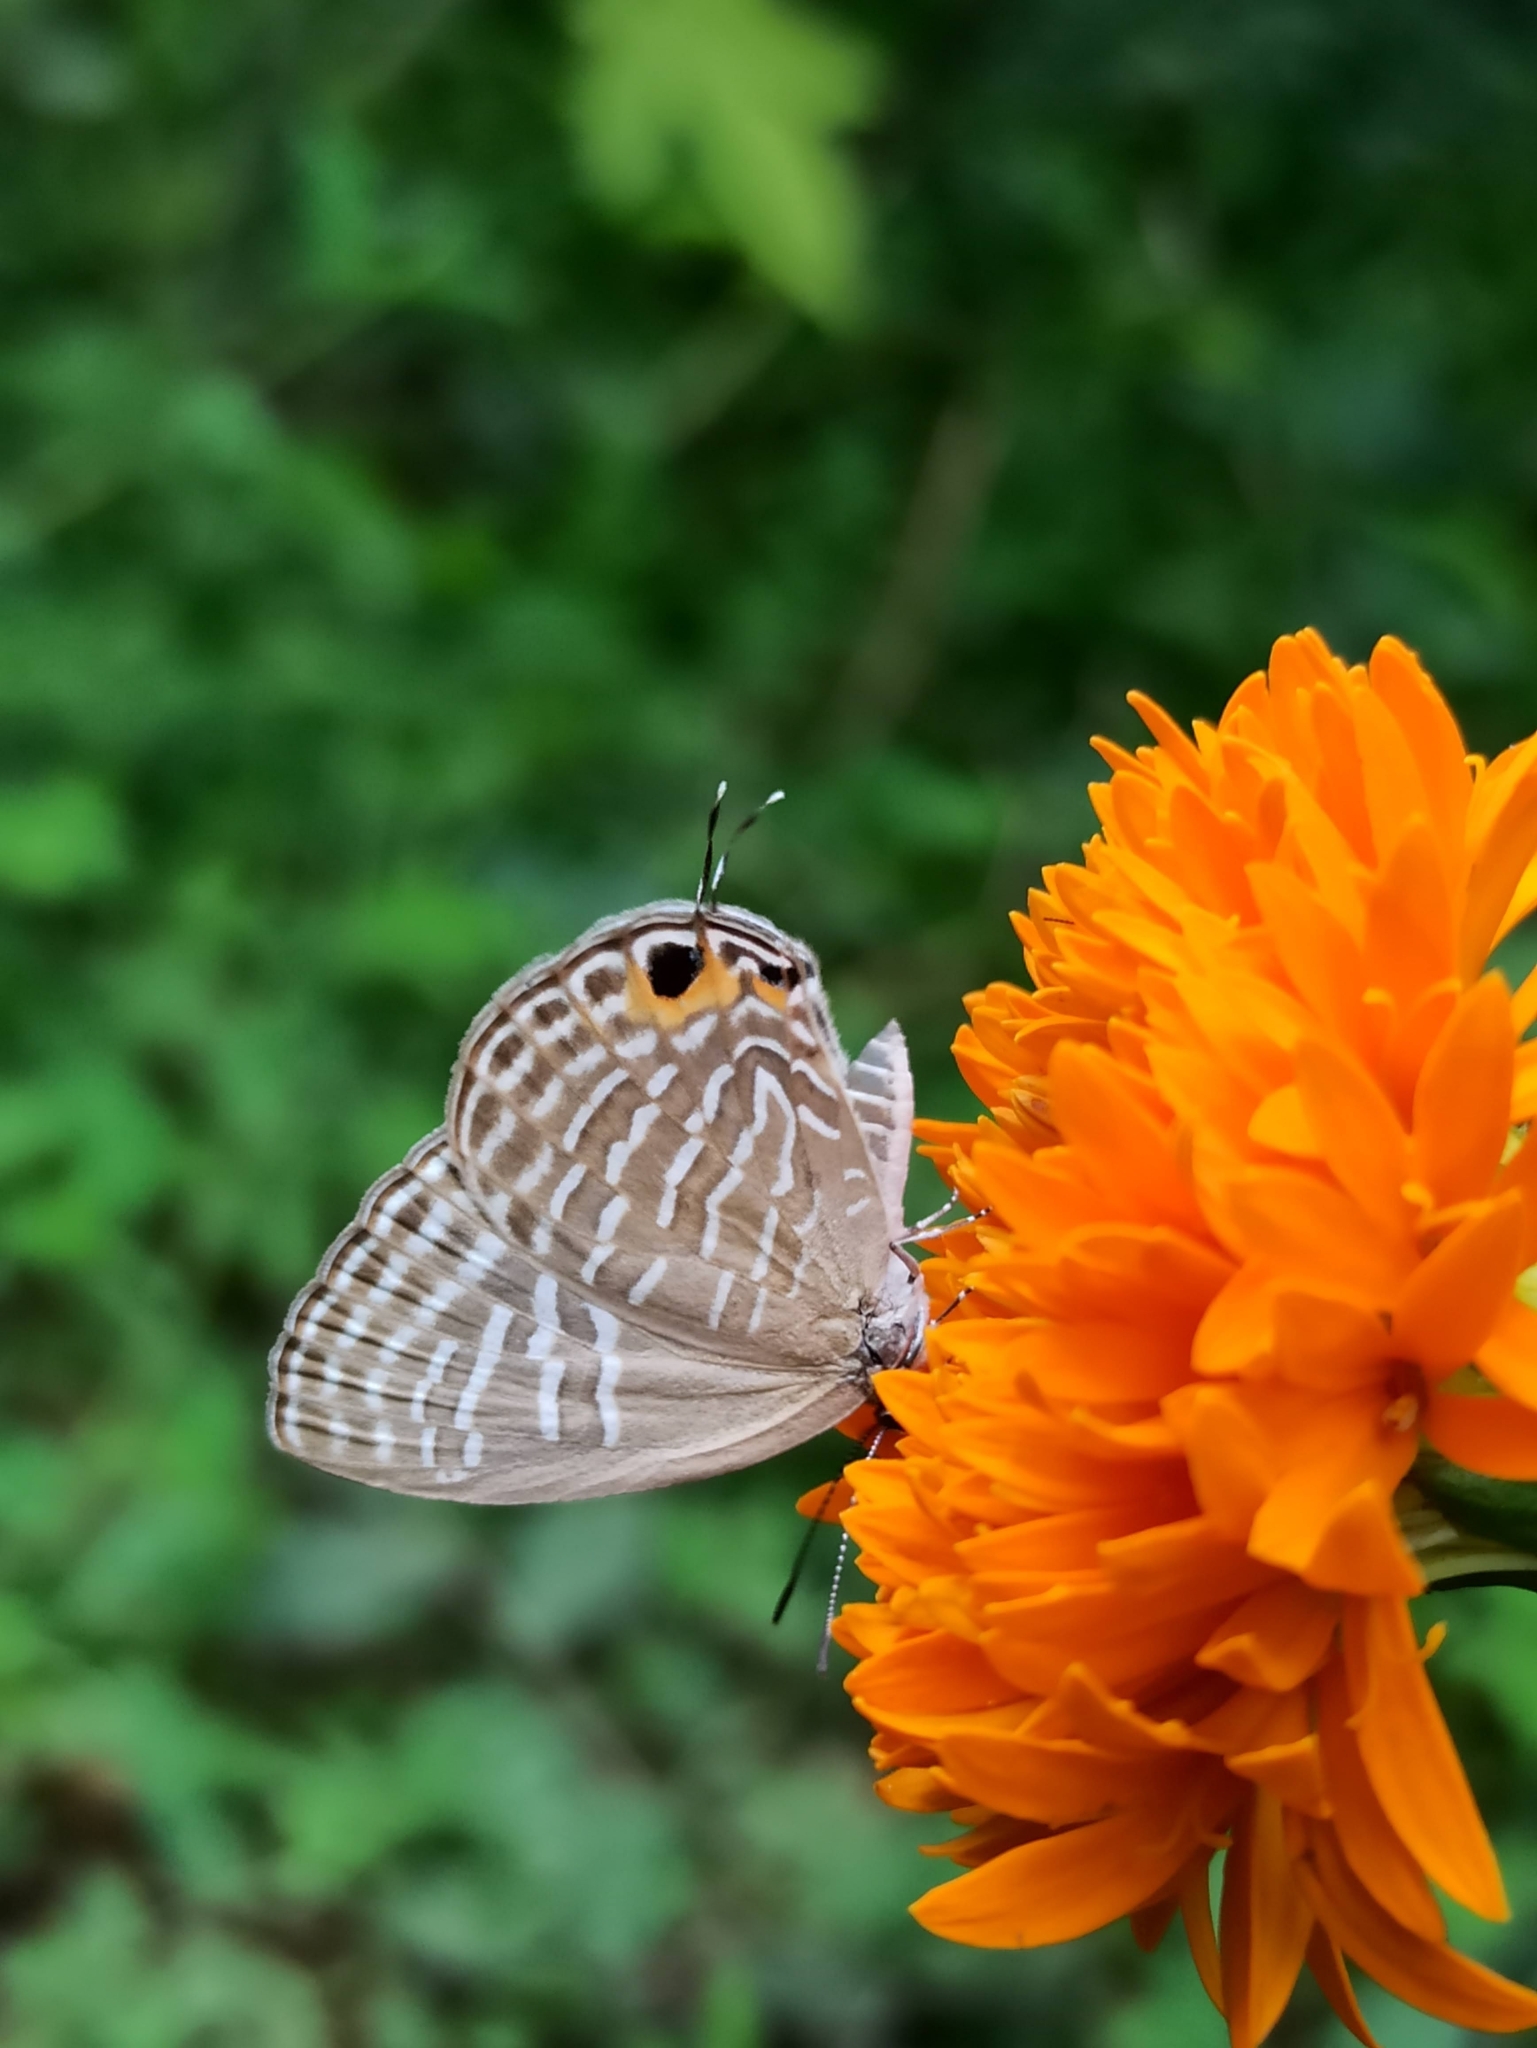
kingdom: Animalia
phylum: Arthropoda
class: Insecta
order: Lepidoptera
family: Lycaenidae
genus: Jamides
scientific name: Jamides alecto
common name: Metallic cerulean
